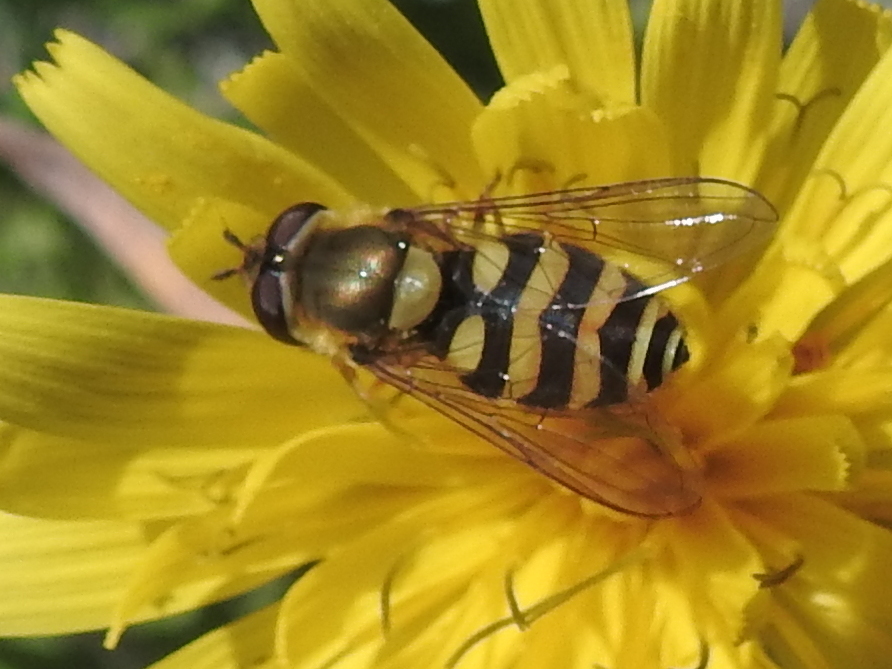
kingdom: Animalia
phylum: Arthropoda
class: Insecta
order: Diptera
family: Syrphidae
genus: Syrphus
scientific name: Syrphus
